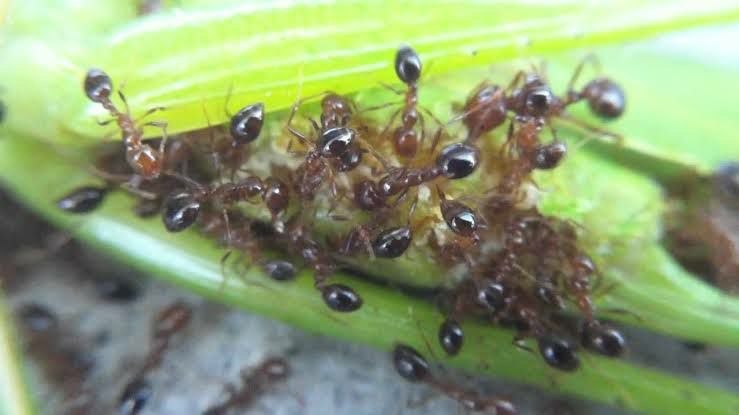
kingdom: Animalia
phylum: Arthropoda
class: Insecta
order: Hymenoptera
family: Formicidae
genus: Solenopsis
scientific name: Solenopsis geminata
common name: Tropical fire ant
